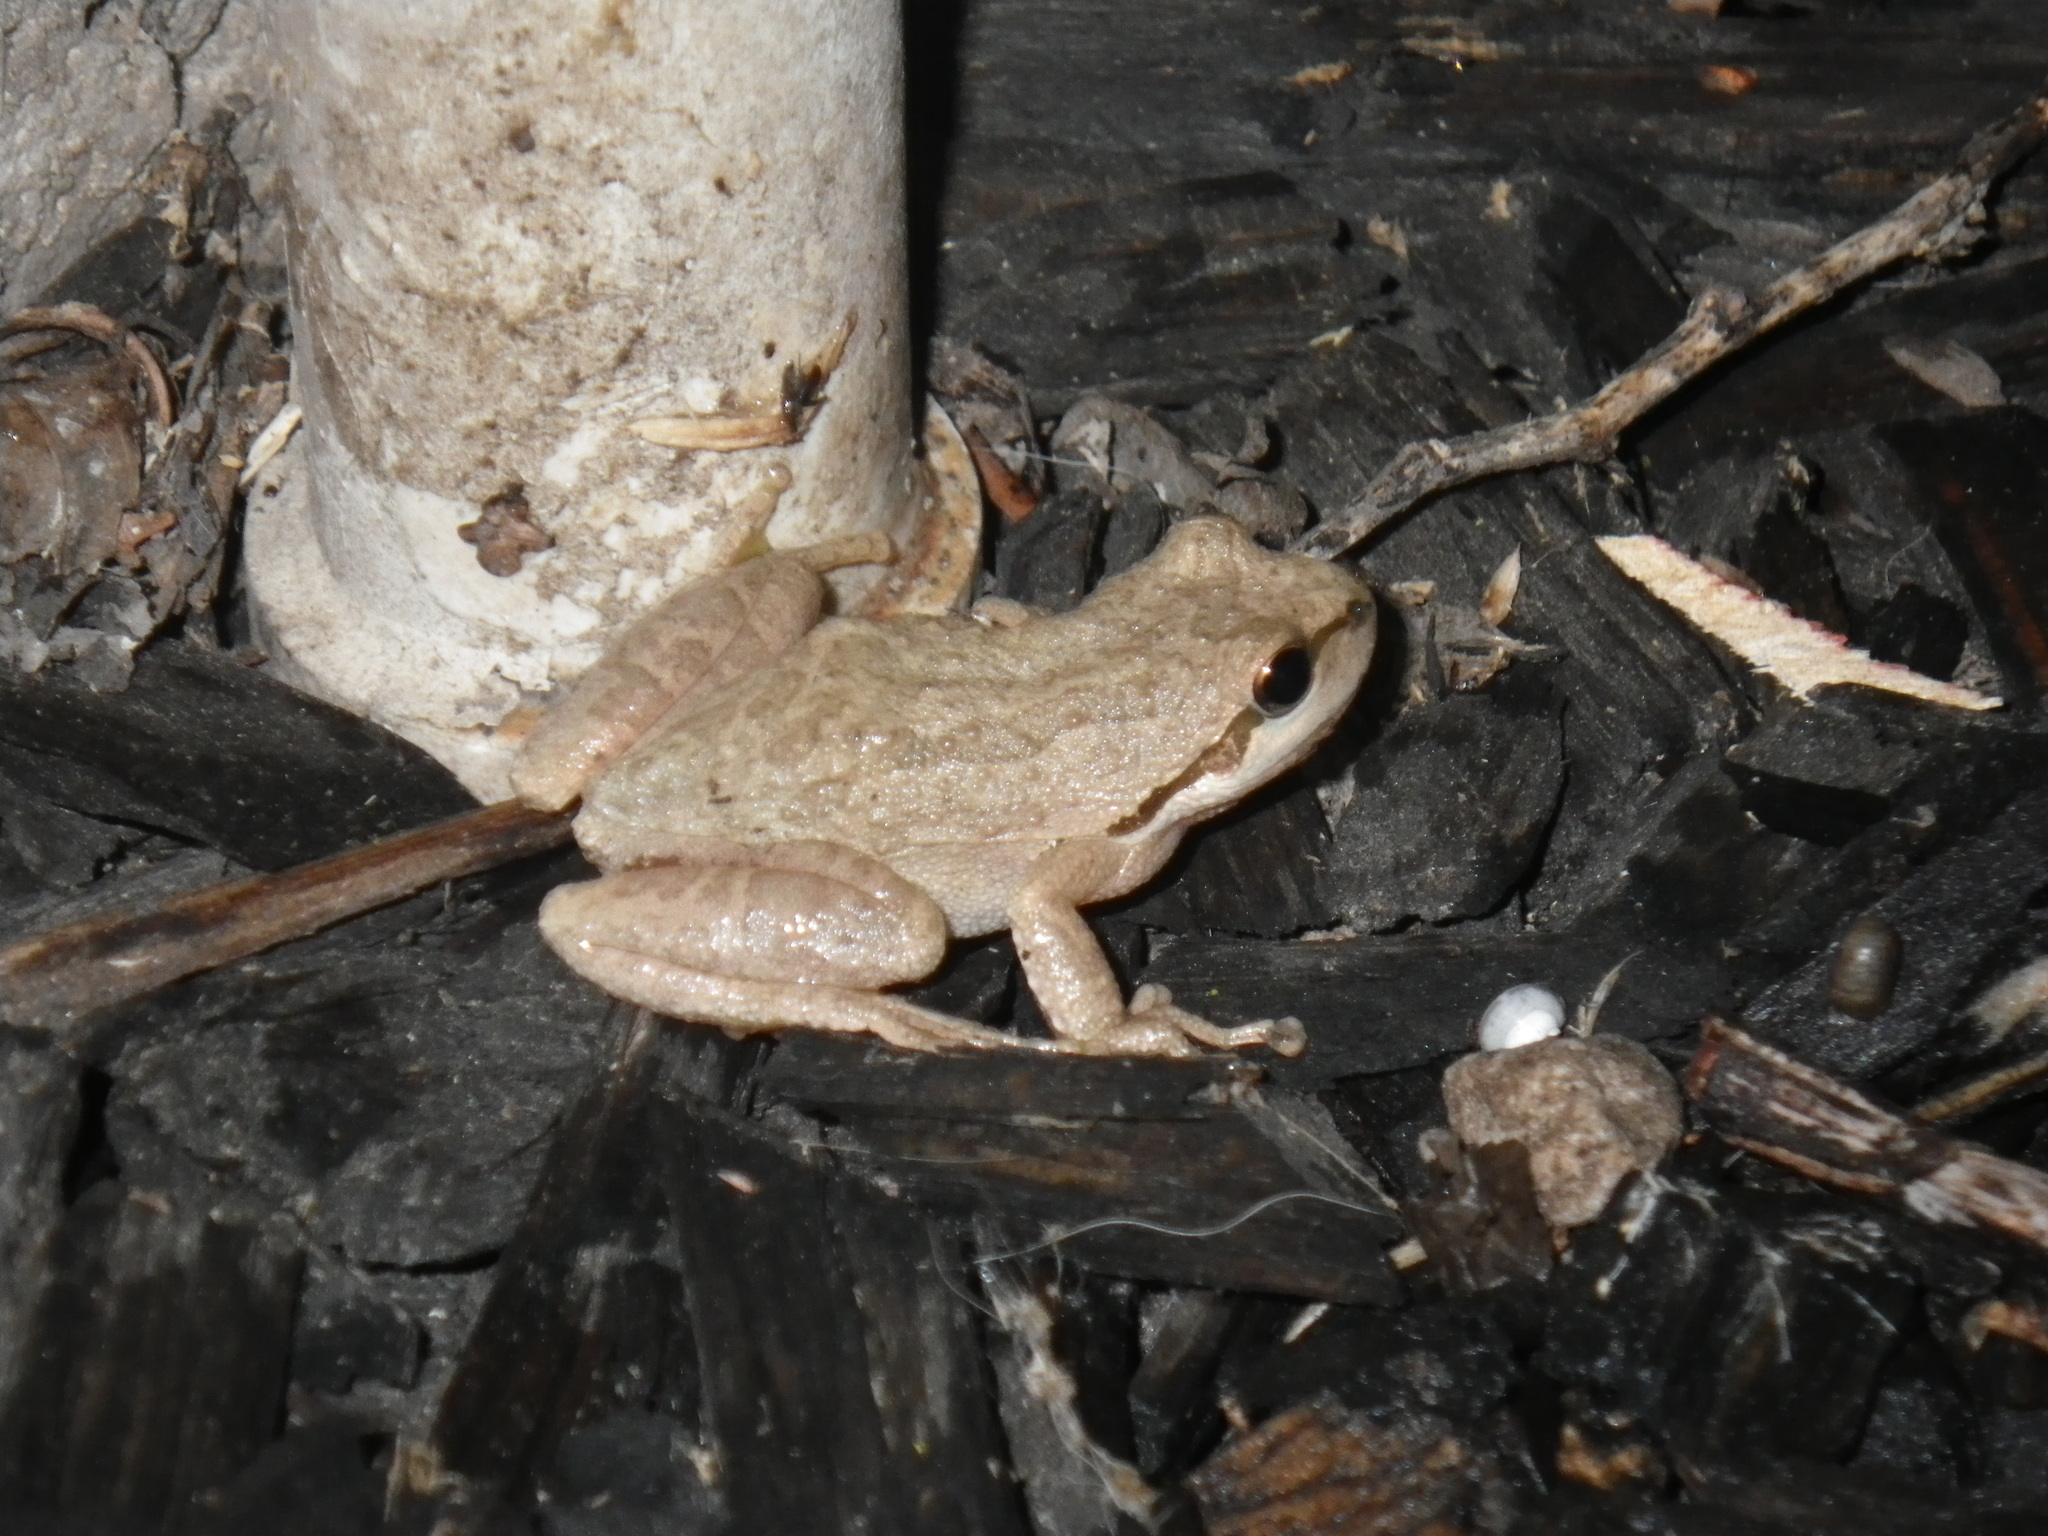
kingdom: Animalia
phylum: Chordata
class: Amphibia
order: Anura
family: Hylidae
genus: Pseudacris
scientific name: Pseudacris regilla
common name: Pacific chorus frog
